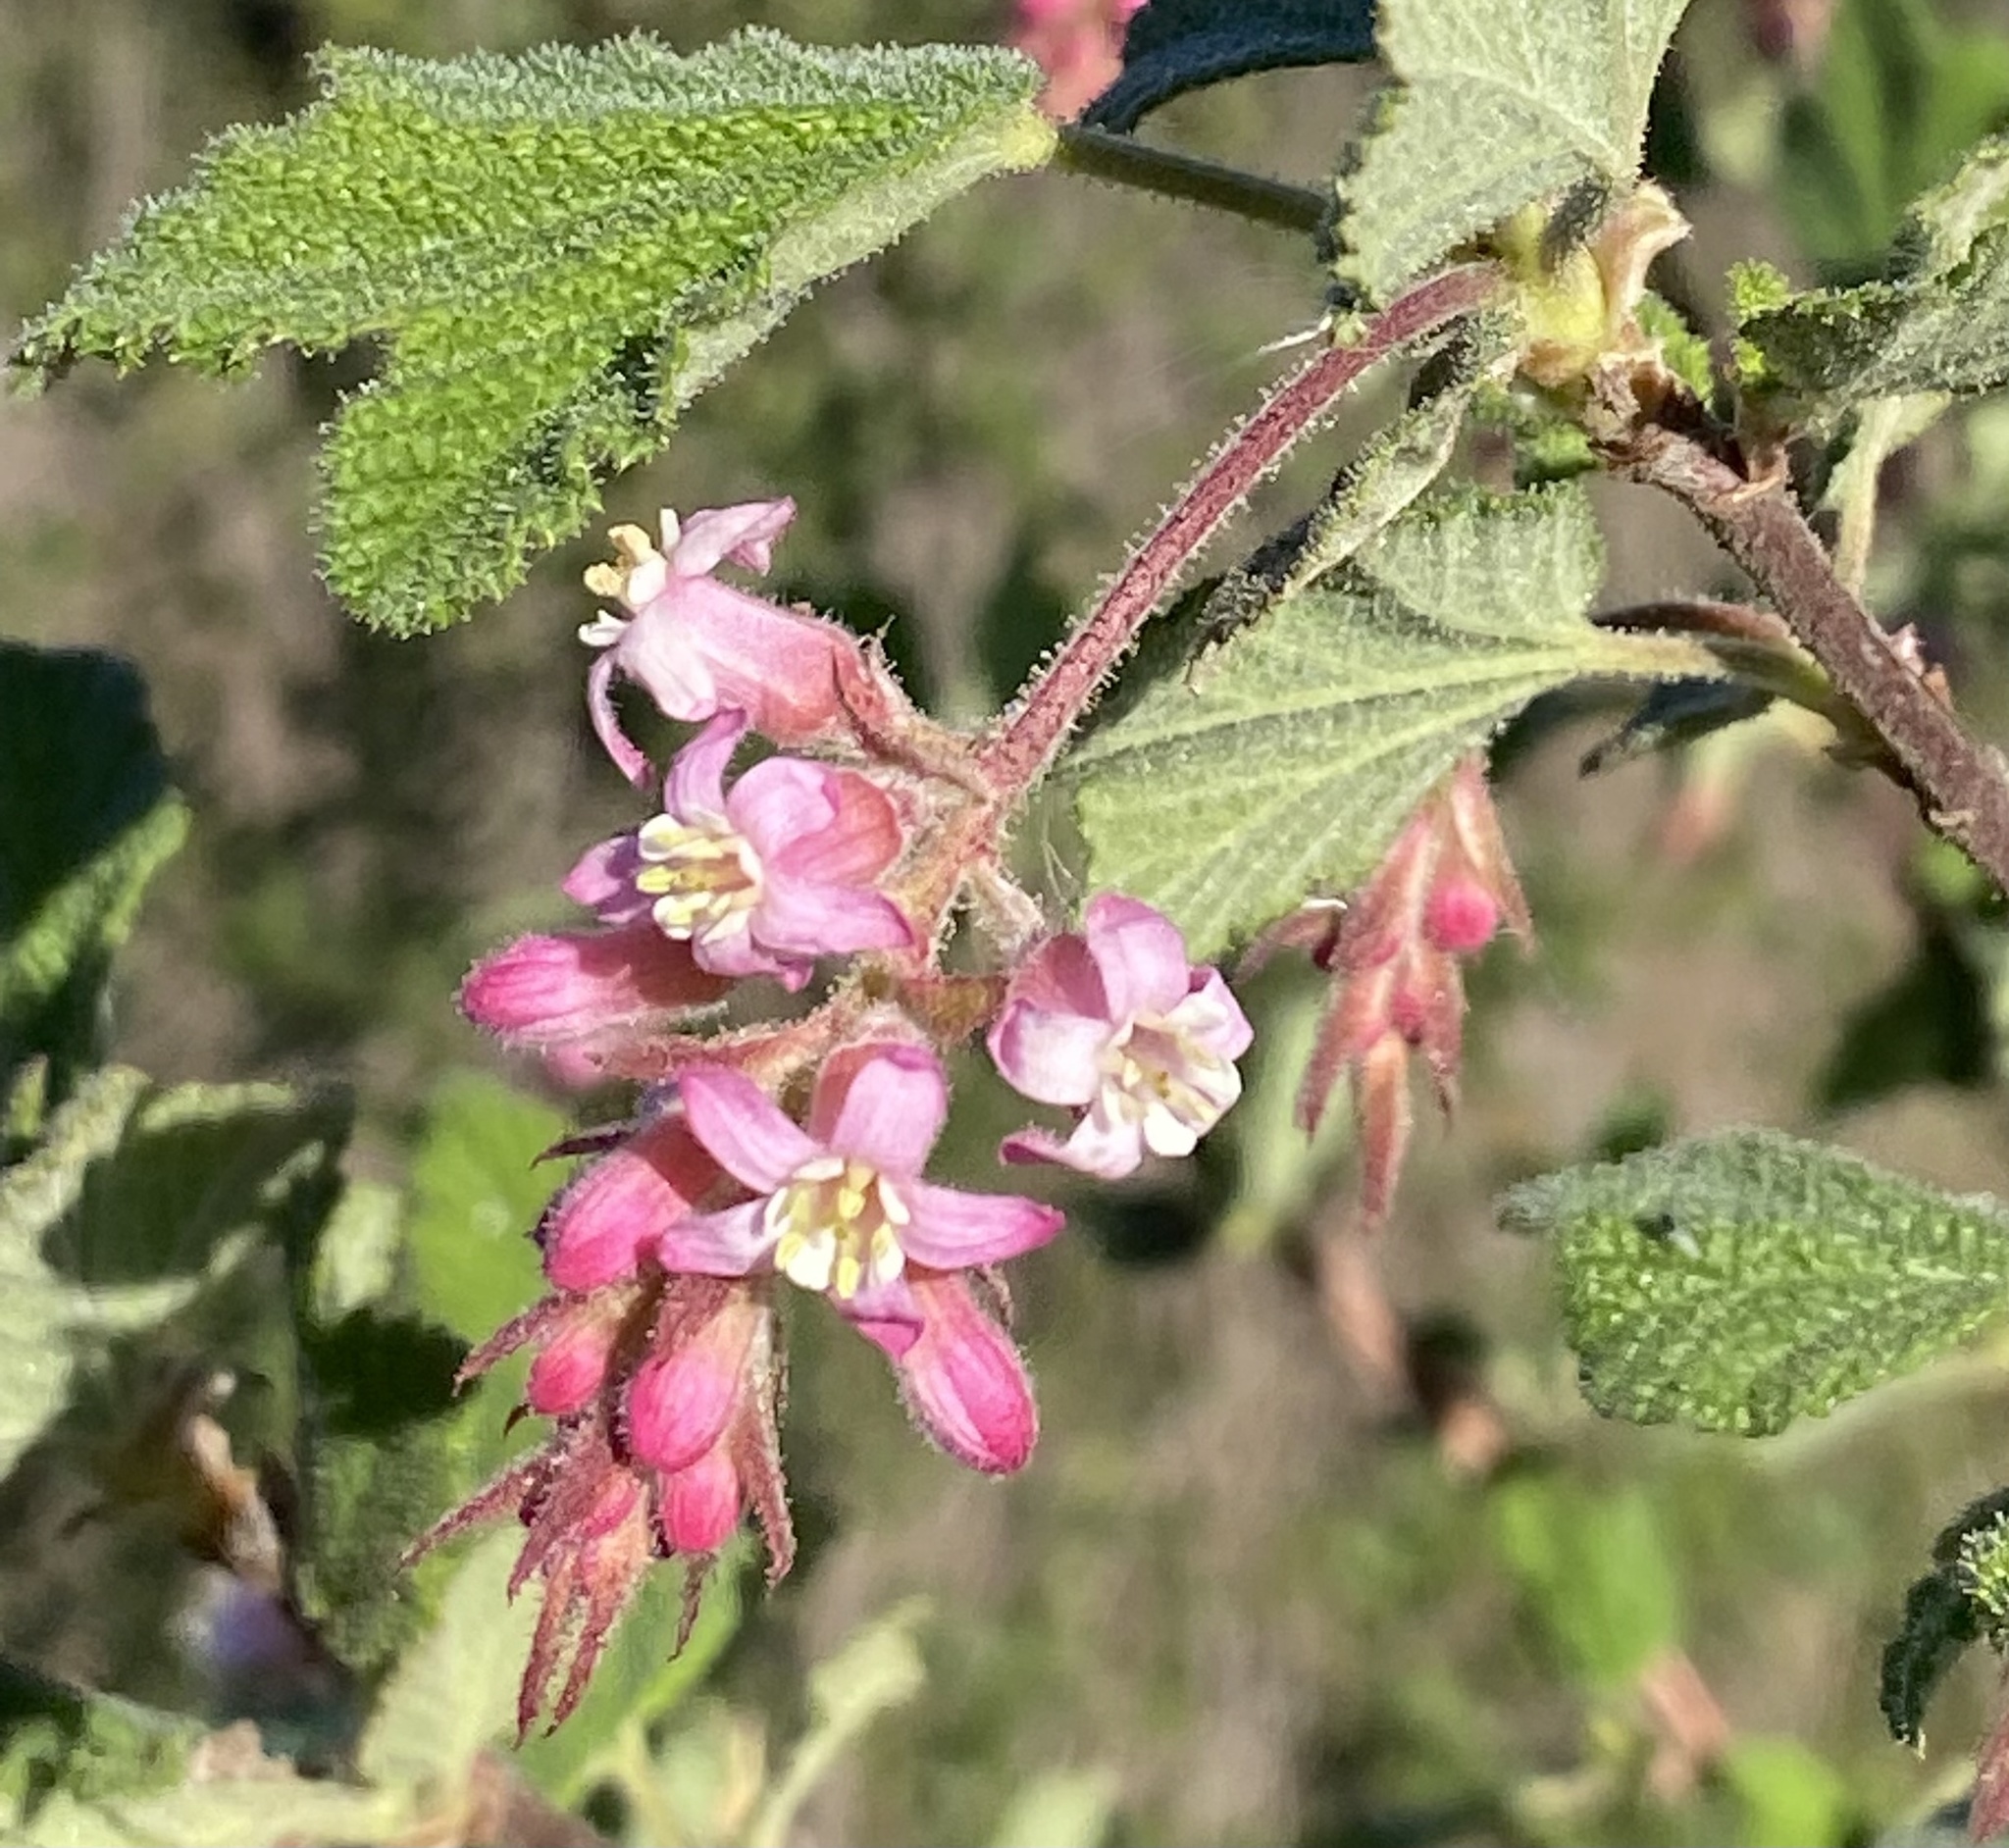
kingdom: Plantae
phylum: Tracheophyta
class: Magnoliopsida
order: Saxifragales
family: Grossulariaceae
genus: Ribes
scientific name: Ribes malvaceum
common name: Chaparral currant
